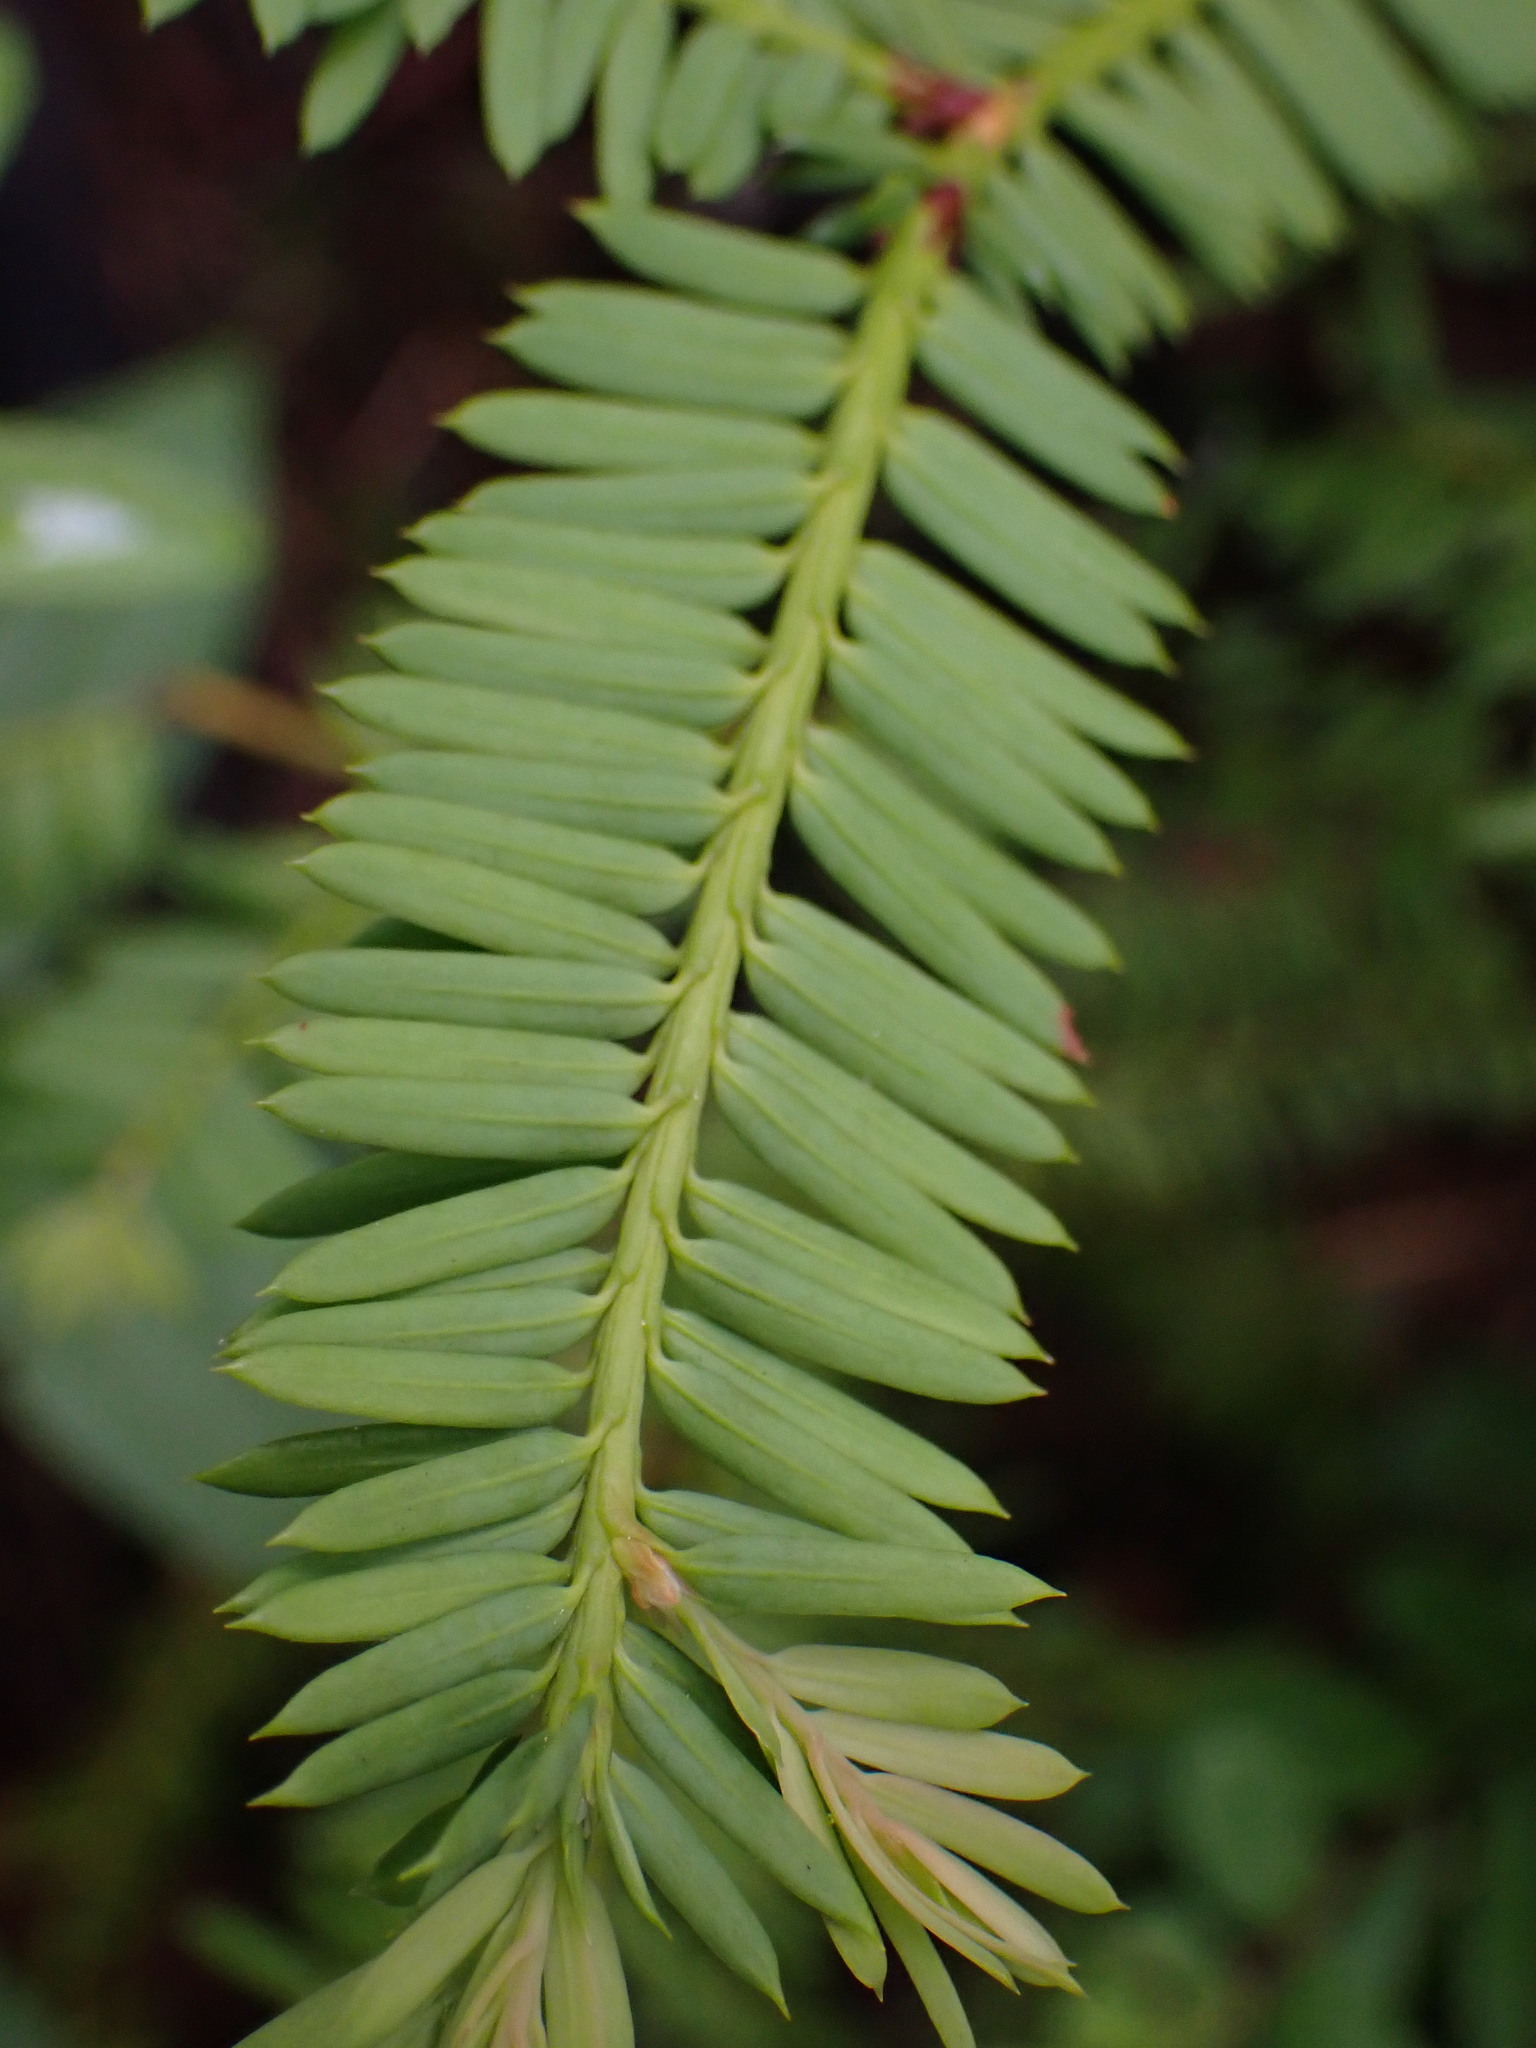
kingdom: Plantae
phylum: Tracheophyta
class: Pinopsida
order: Pinales
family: Taxaceae
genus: Taxus
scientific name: Taxus brevifolia
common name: Pacific yew
